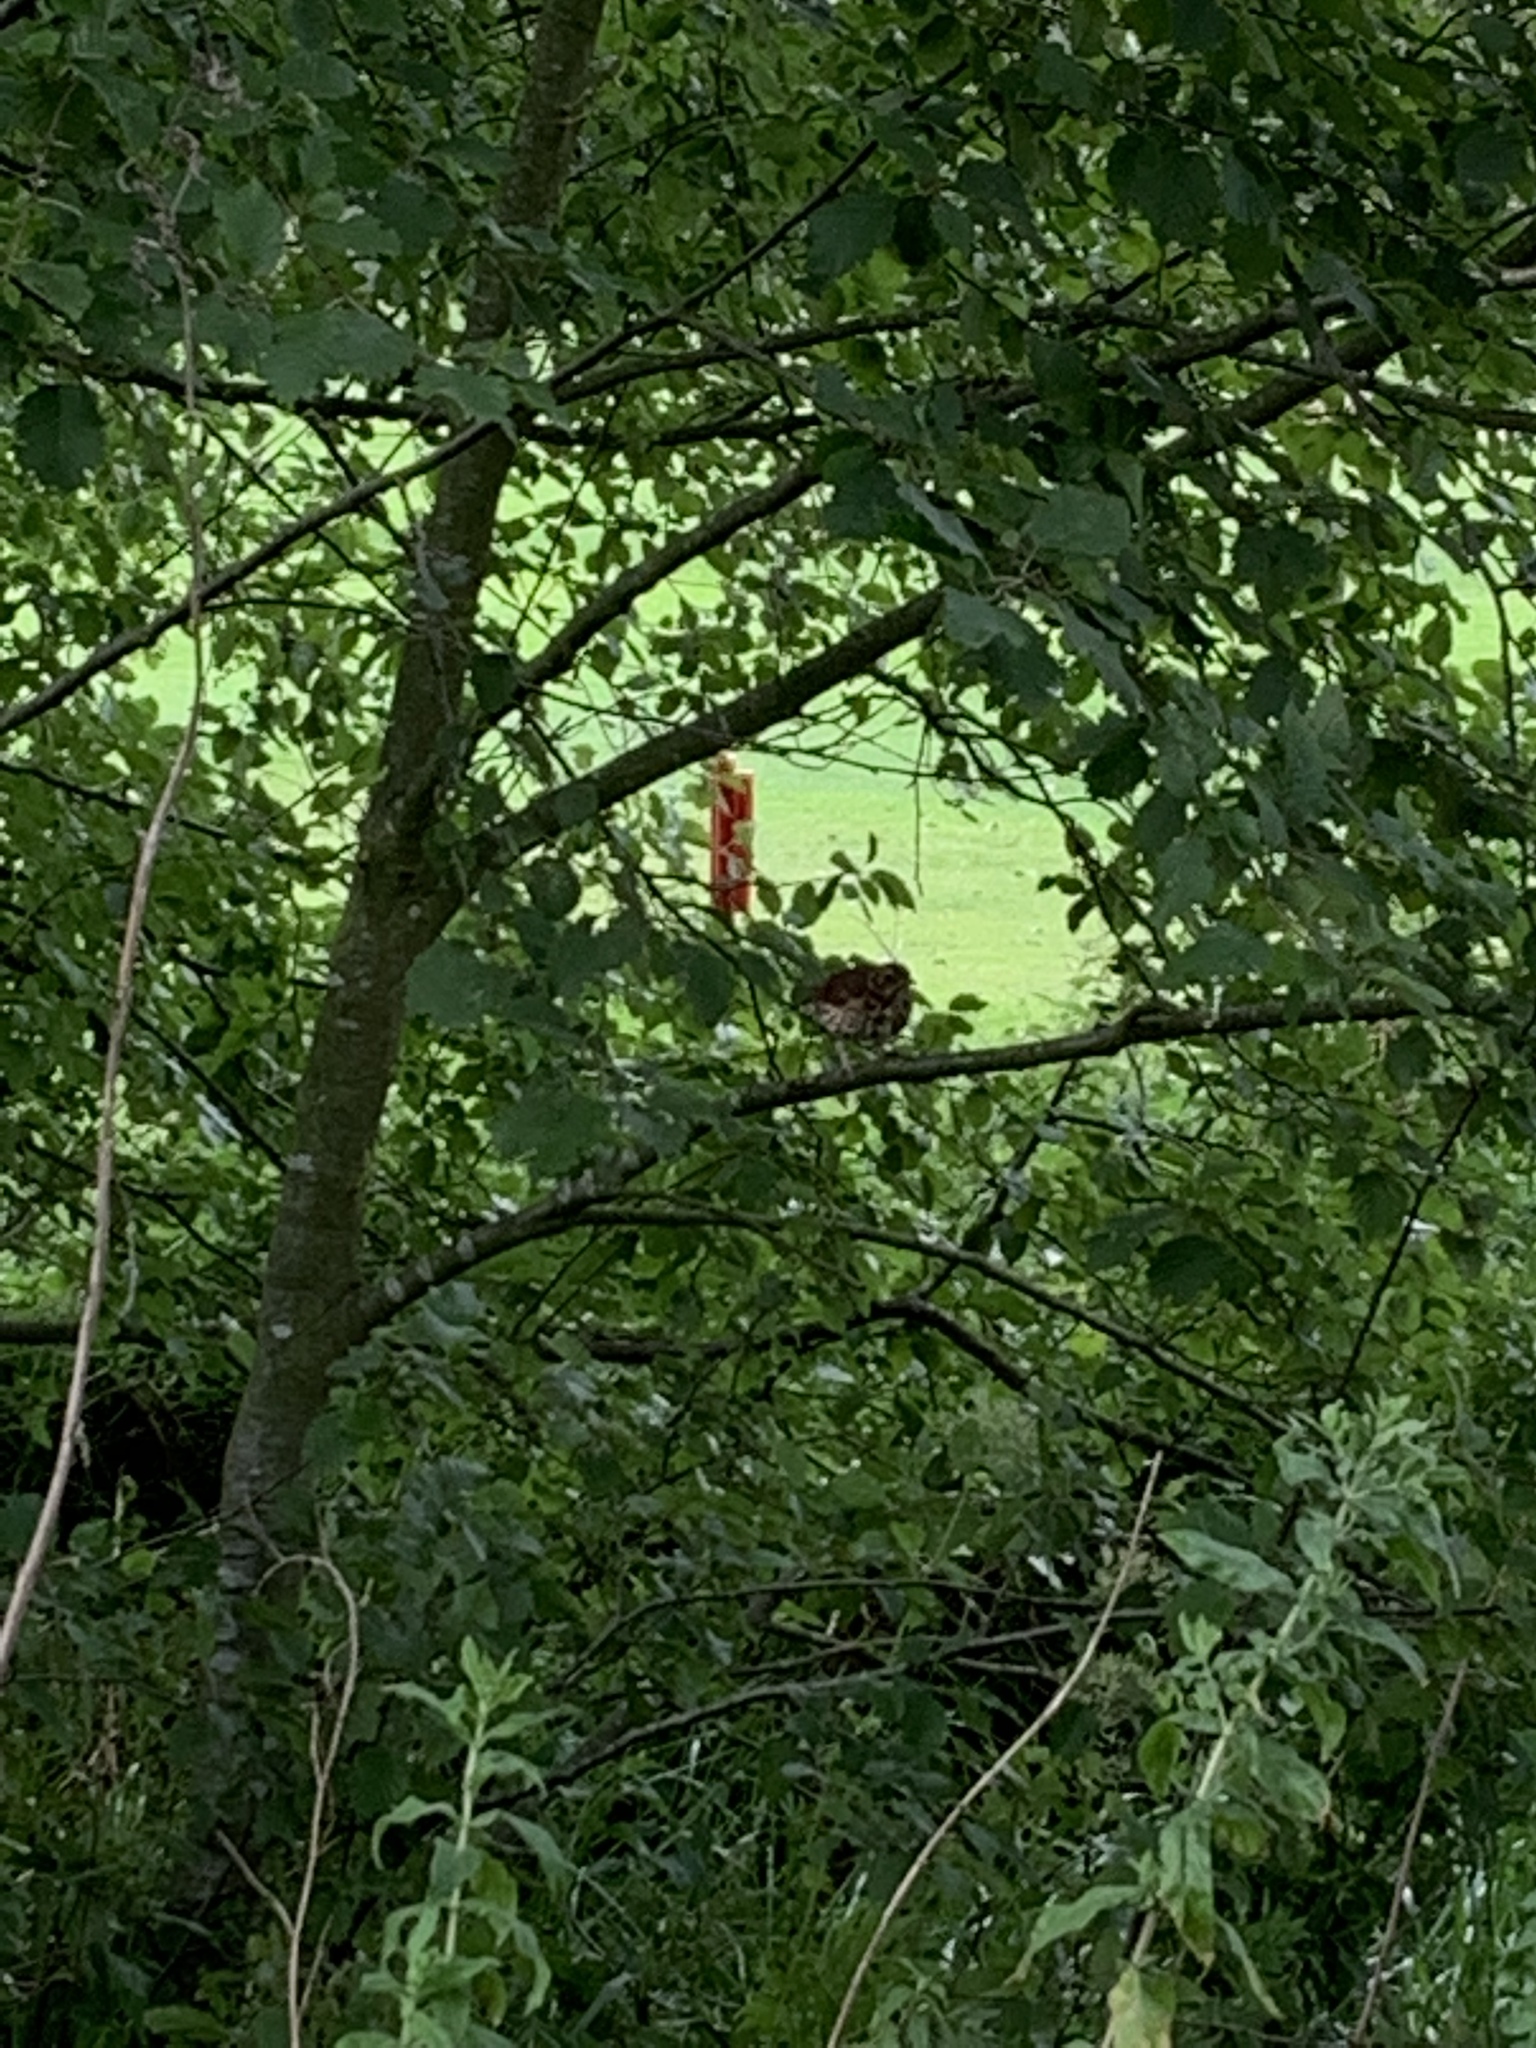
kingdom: Animalia
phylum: Chordata
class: Aves
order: Passeriformes
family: Turdidae
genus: Turdus
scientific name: Turdus philomelos
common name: Song thrush
